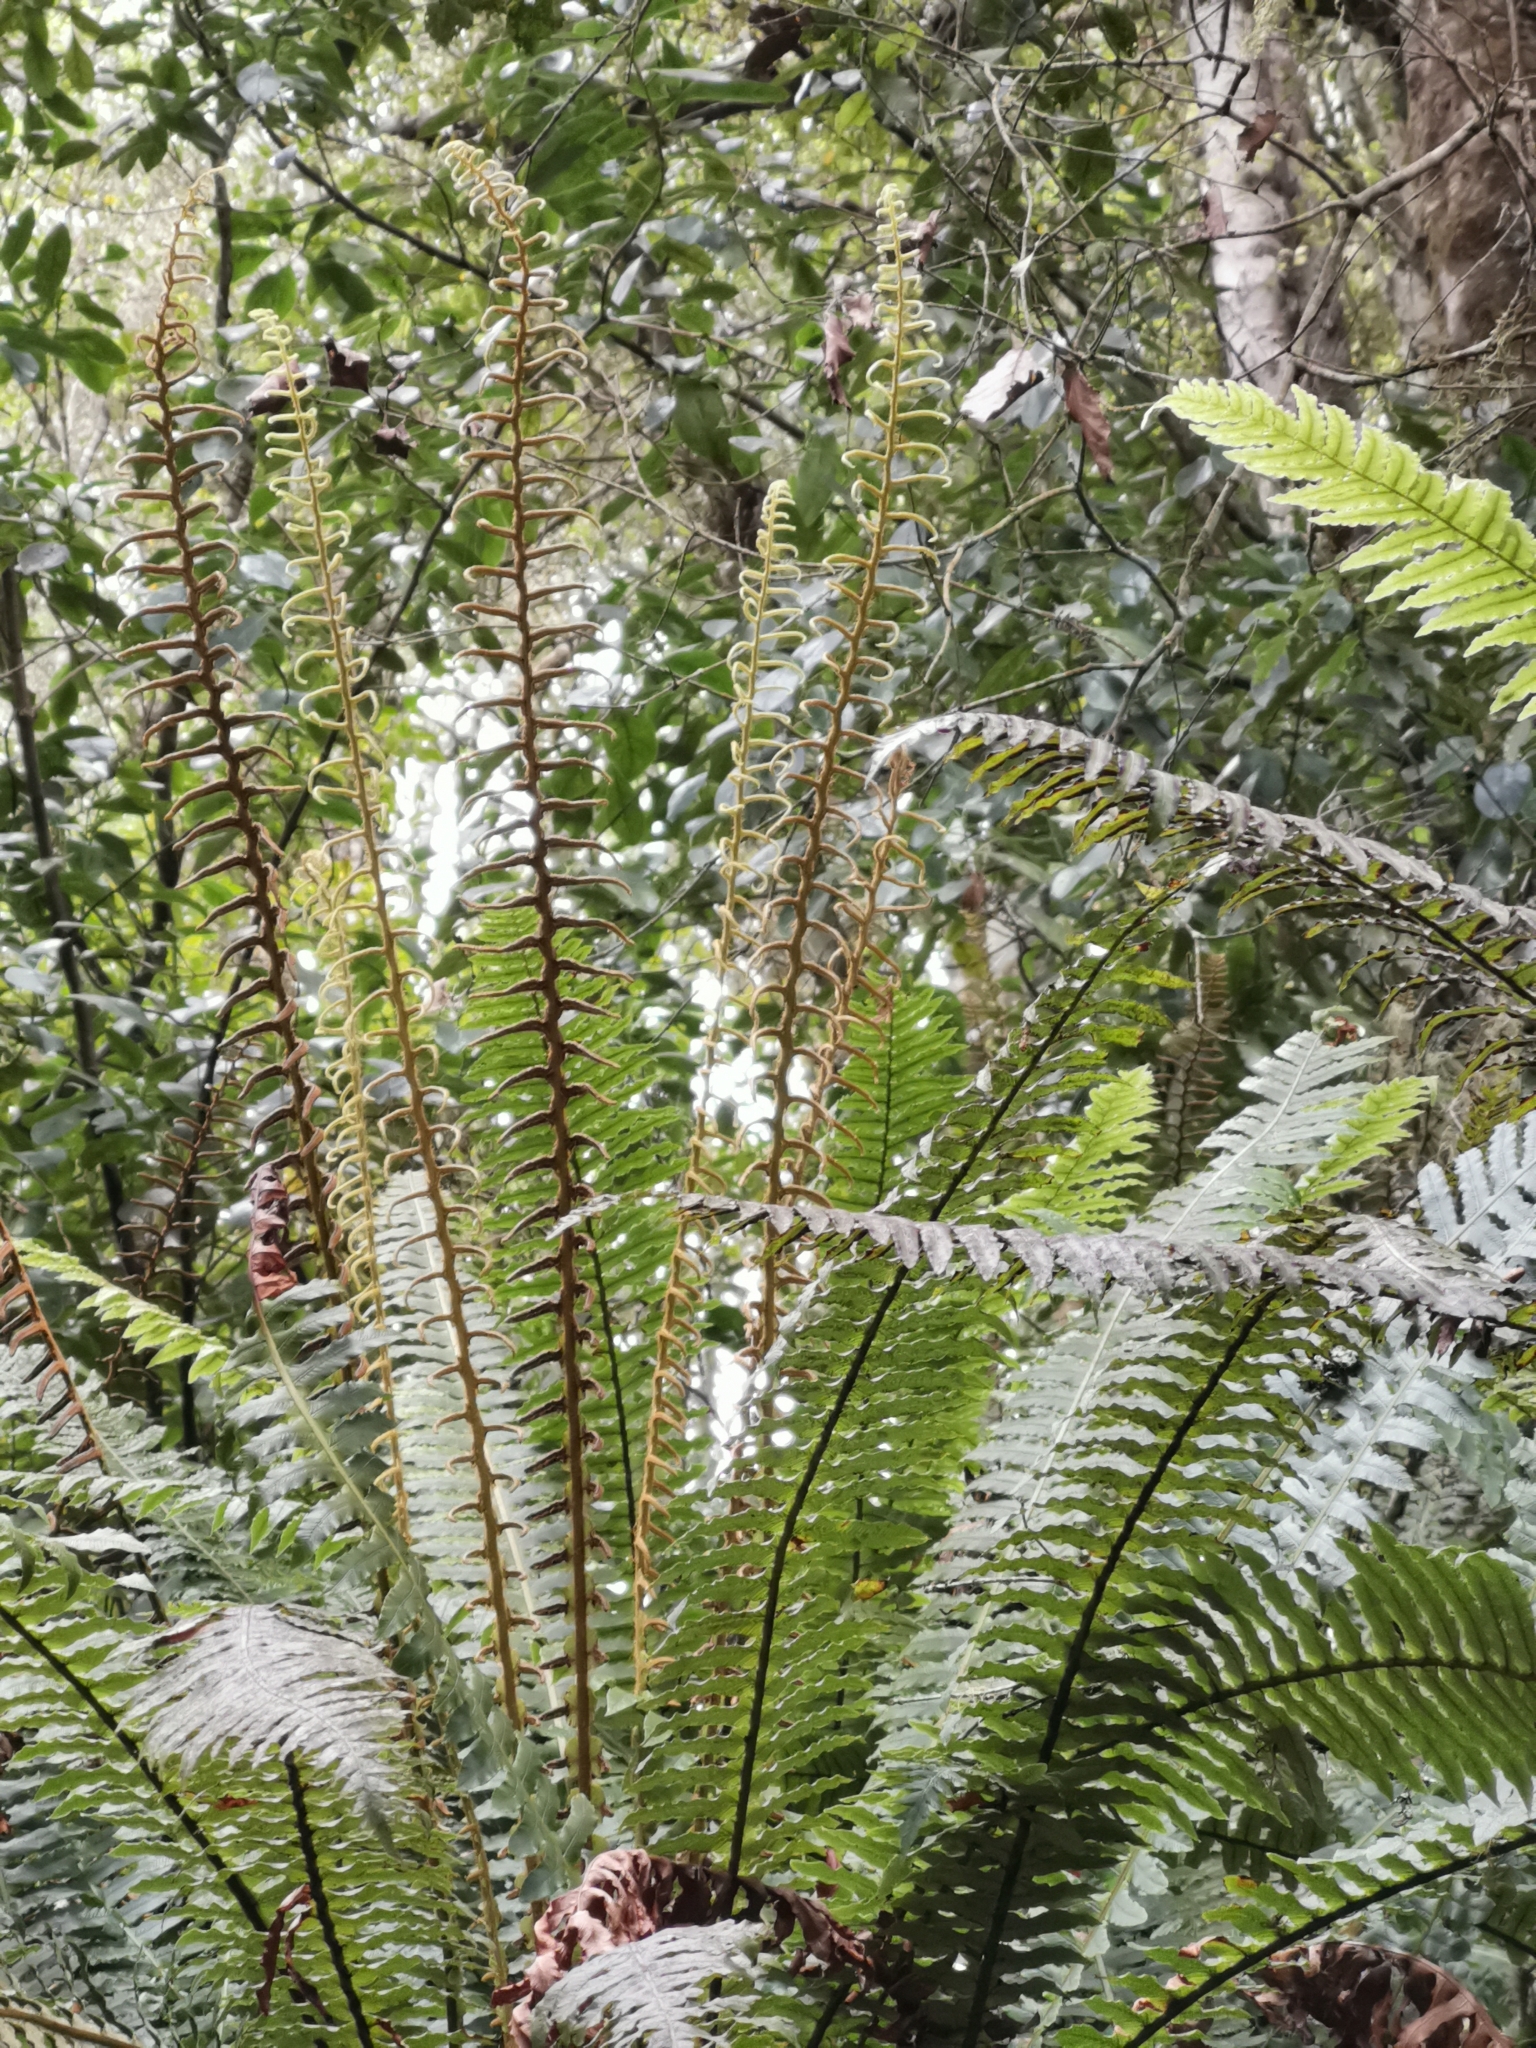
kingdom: Plantae
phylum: Tracheophyta
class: Polypodiopsida
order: Polypodiales
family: Blechnaceae
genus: Lomaria
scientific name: Lomaria discolor
